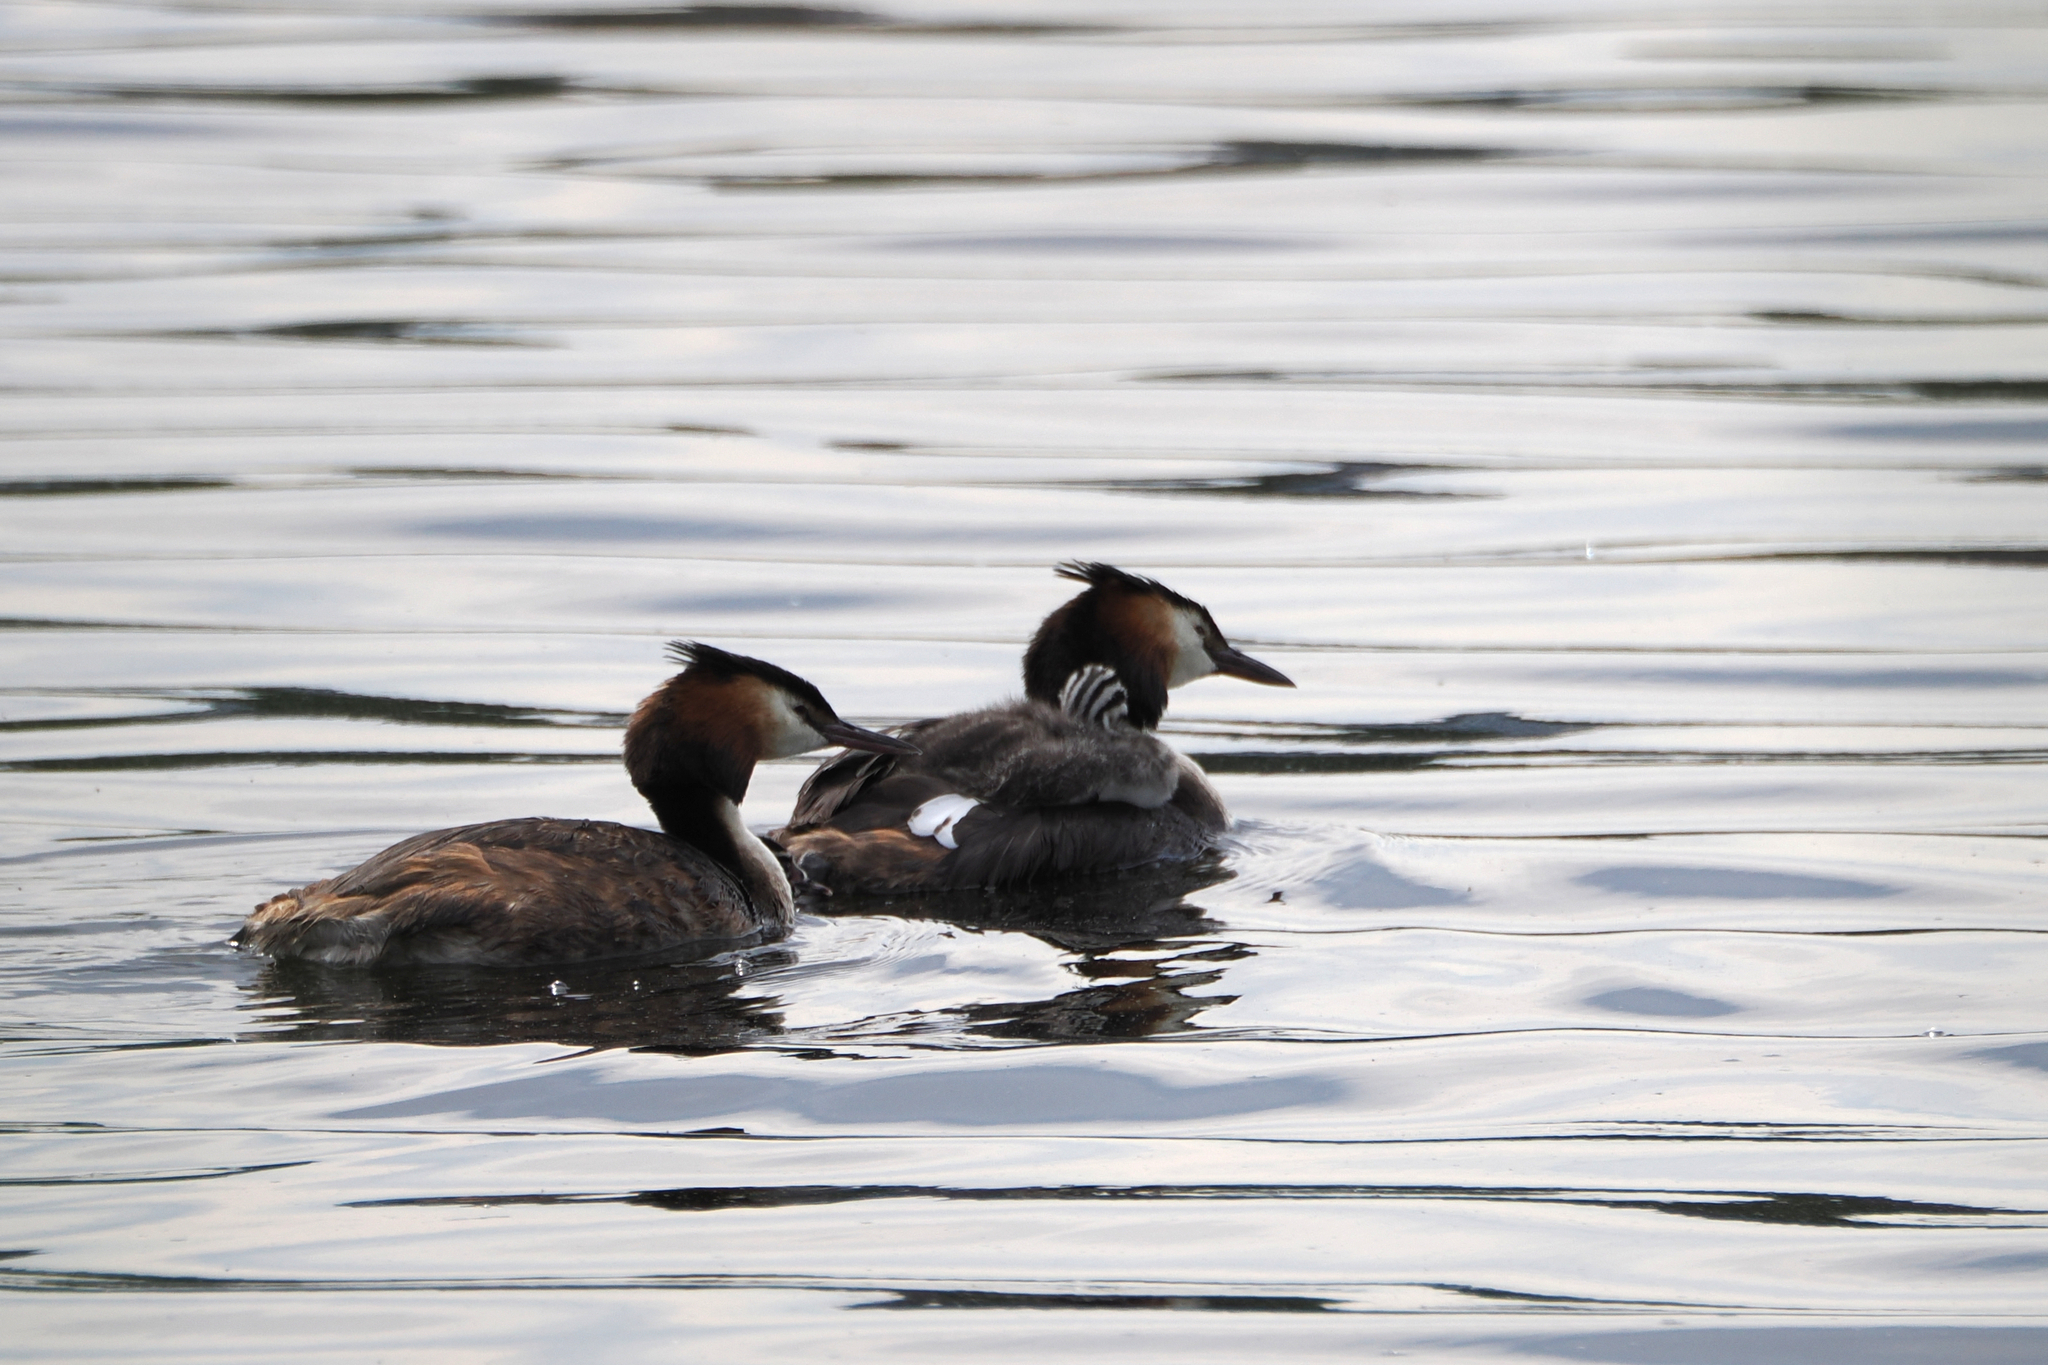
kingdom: Animalia
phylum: Chordata
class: Aves
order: Podicipediformes
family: Podicipedidae
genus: Podiceps
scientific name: Podiceps cristatus
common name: Great crested grebe
